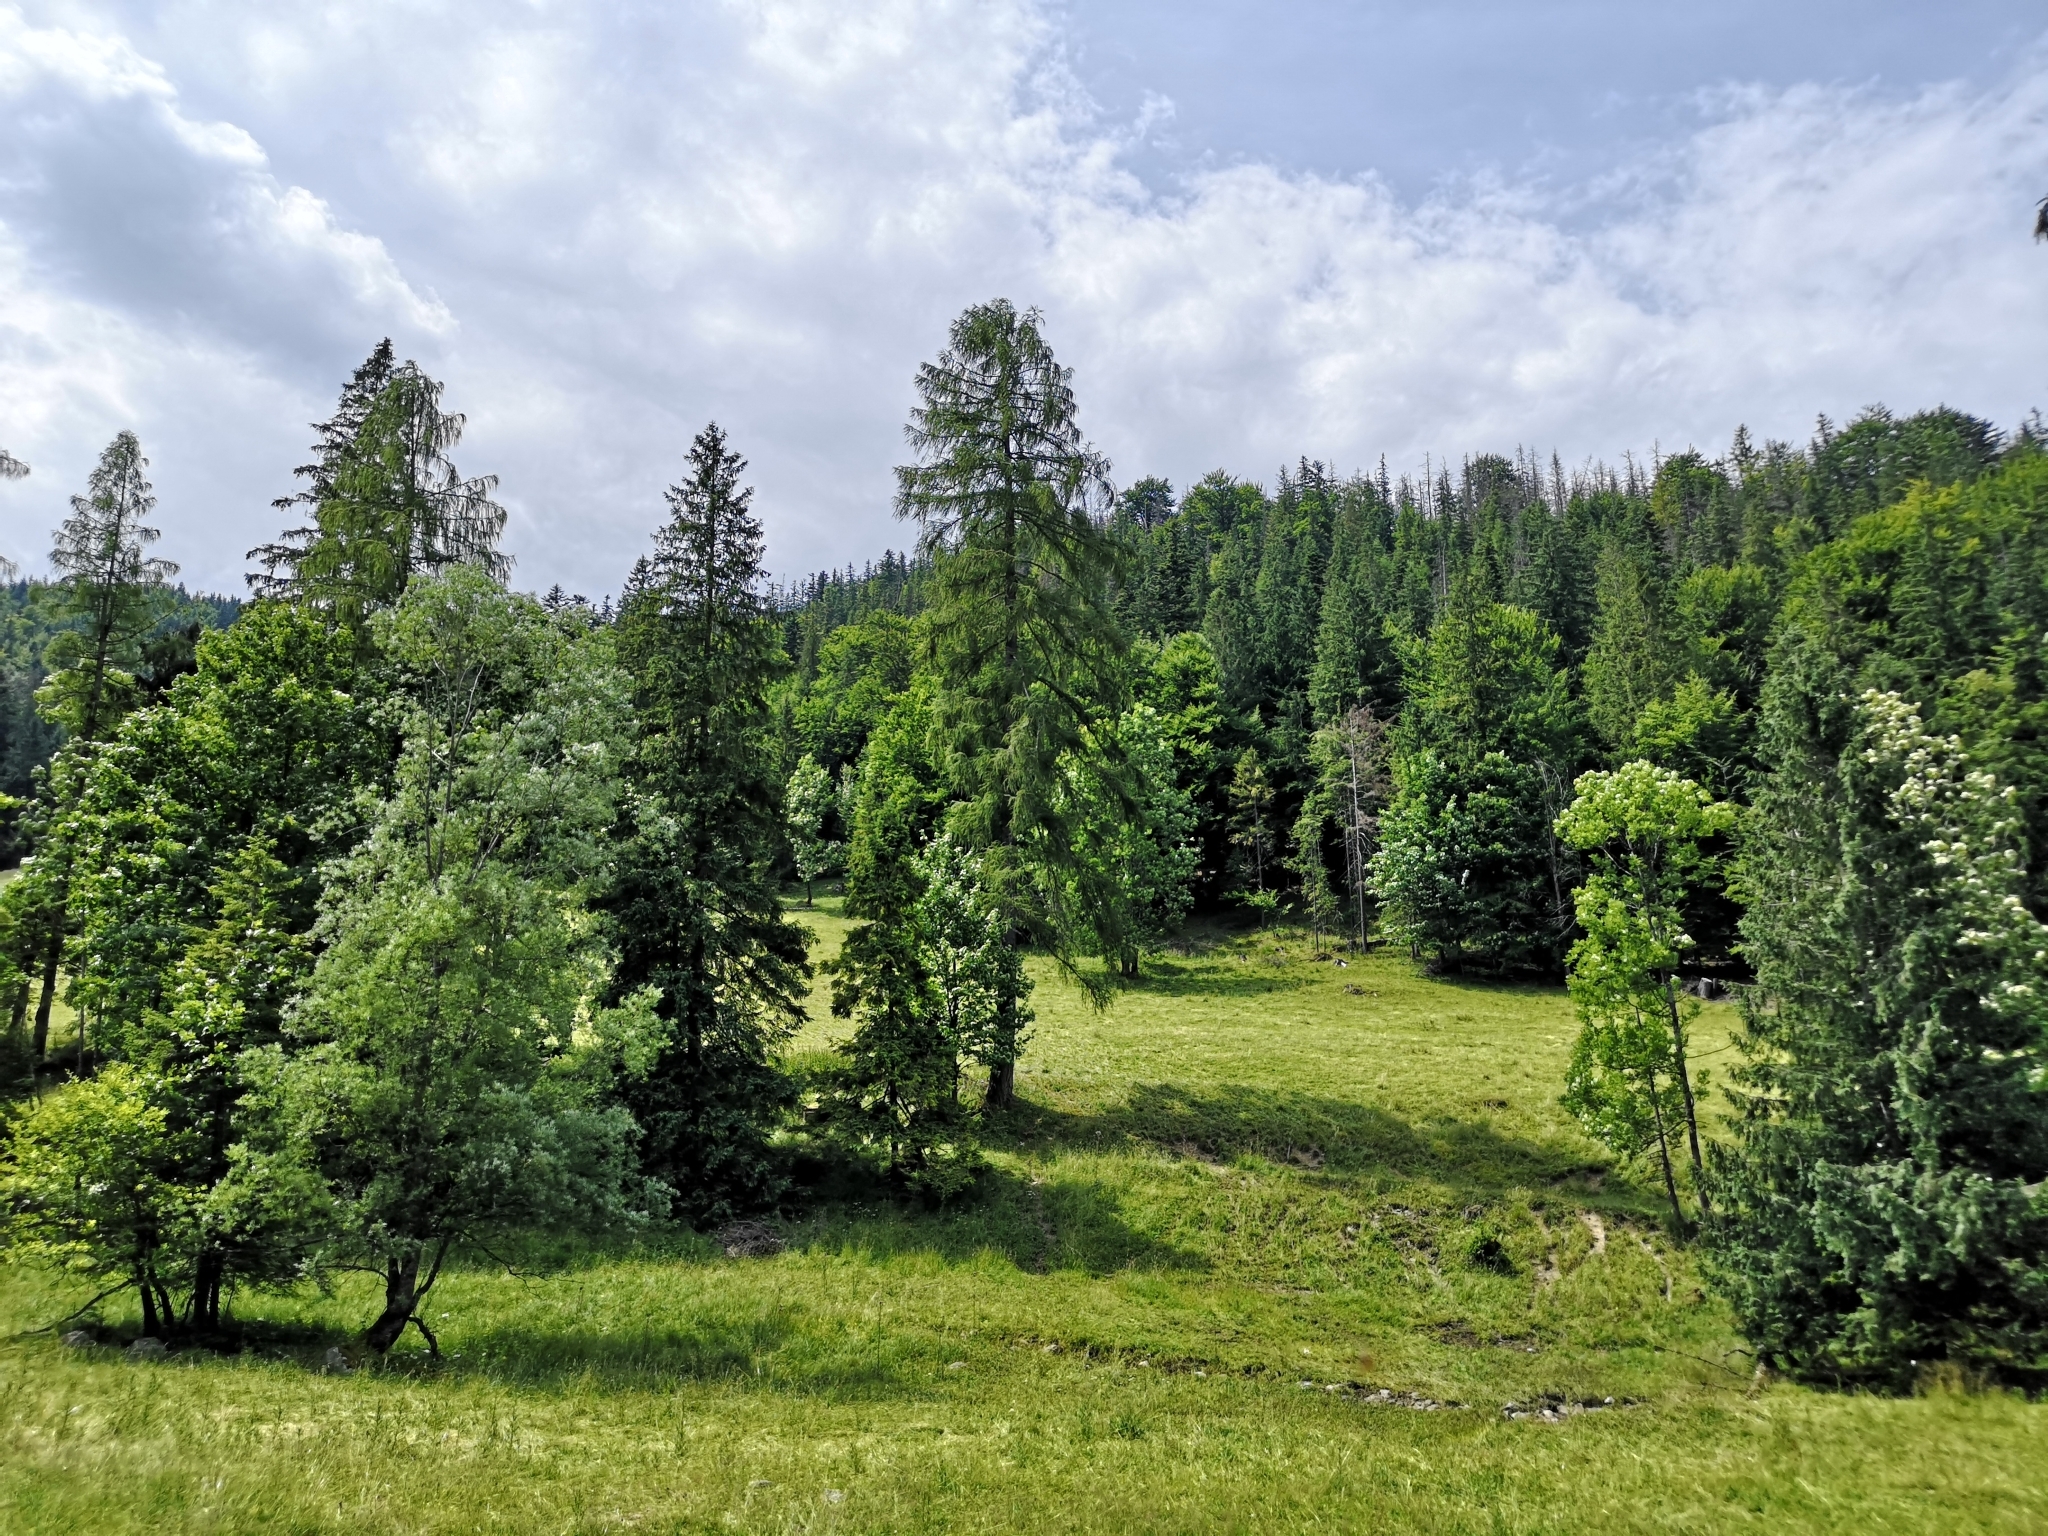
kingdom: Plantae
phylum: Tracheophyta
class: Pinopsida
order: Pinales
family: Pinaceae
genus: Larix
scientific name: Larix decidua
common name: European larch
